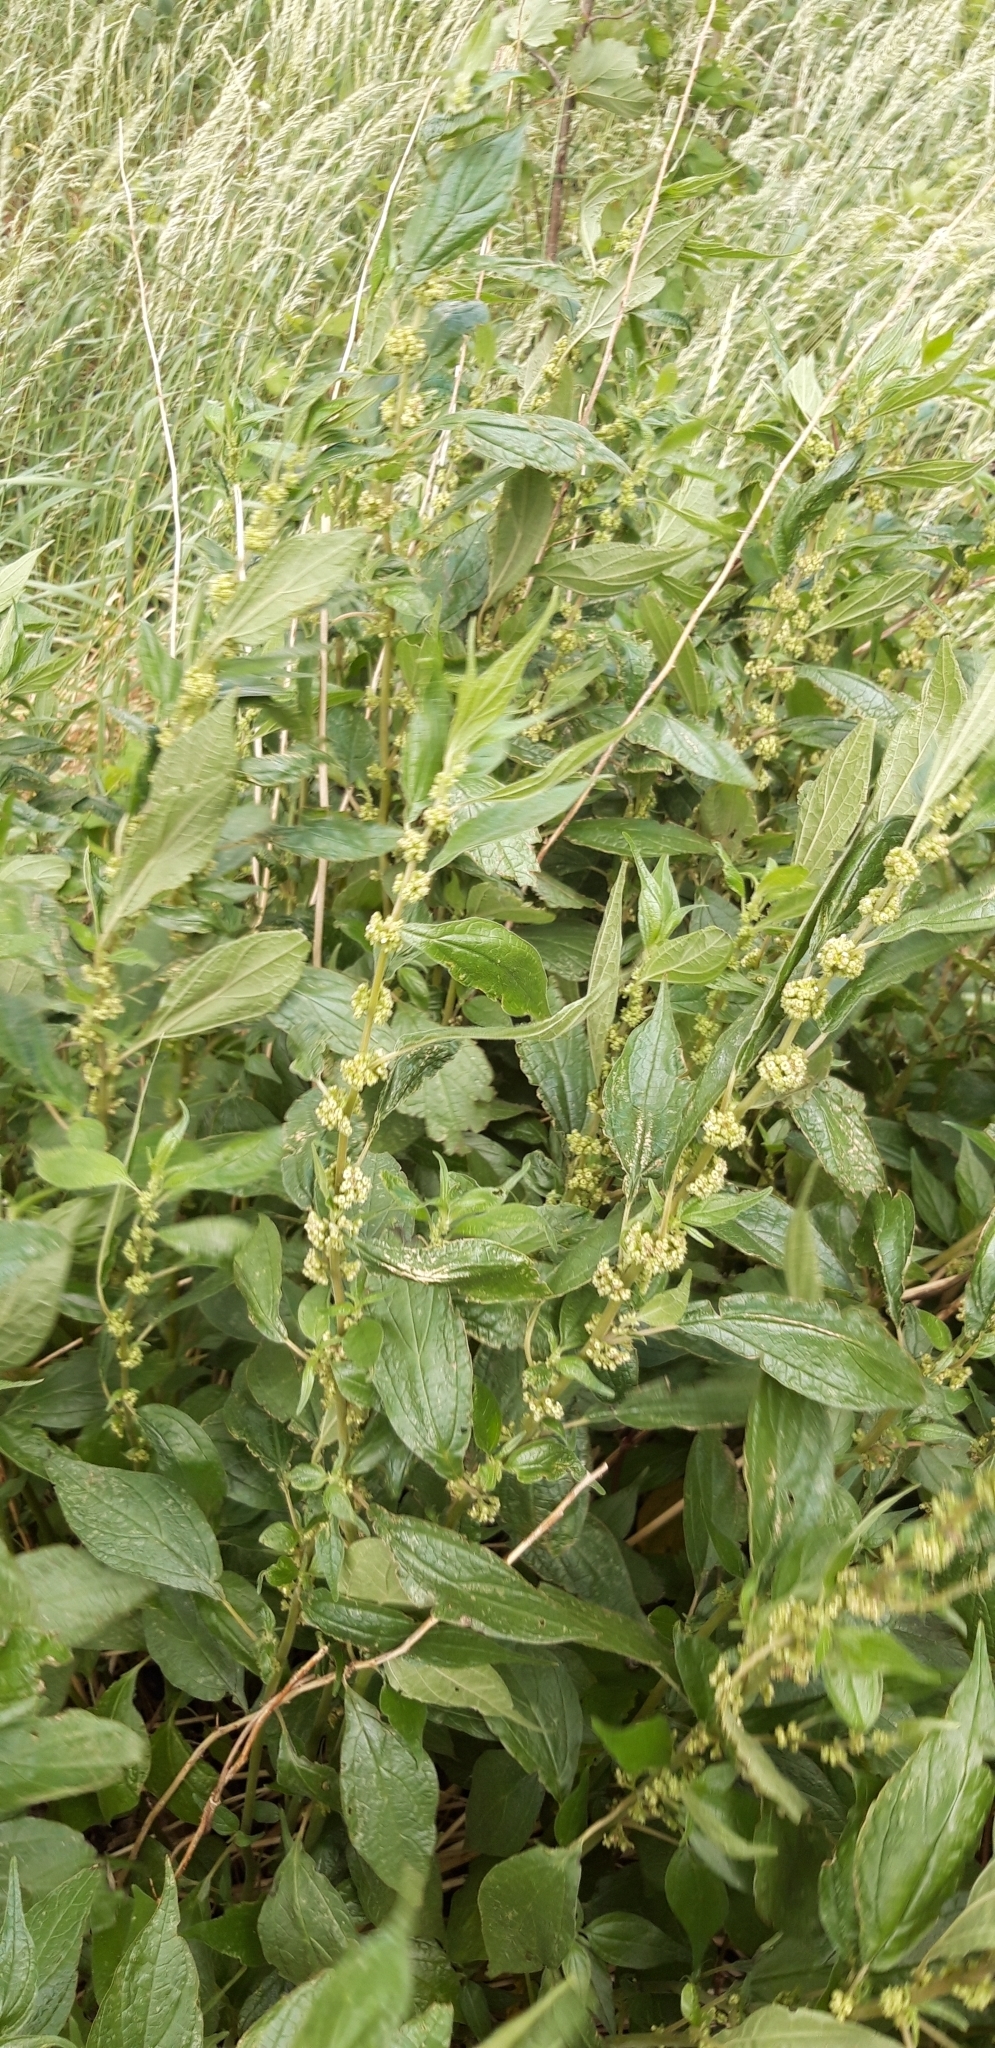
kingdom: Plantae
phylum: Tracheophyta
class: Magnoliopsida
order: Rosales
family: Urticaceae
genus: Parietaria
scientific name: Parietaria officinalis
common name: Eastern pellitory-of-the-wall
